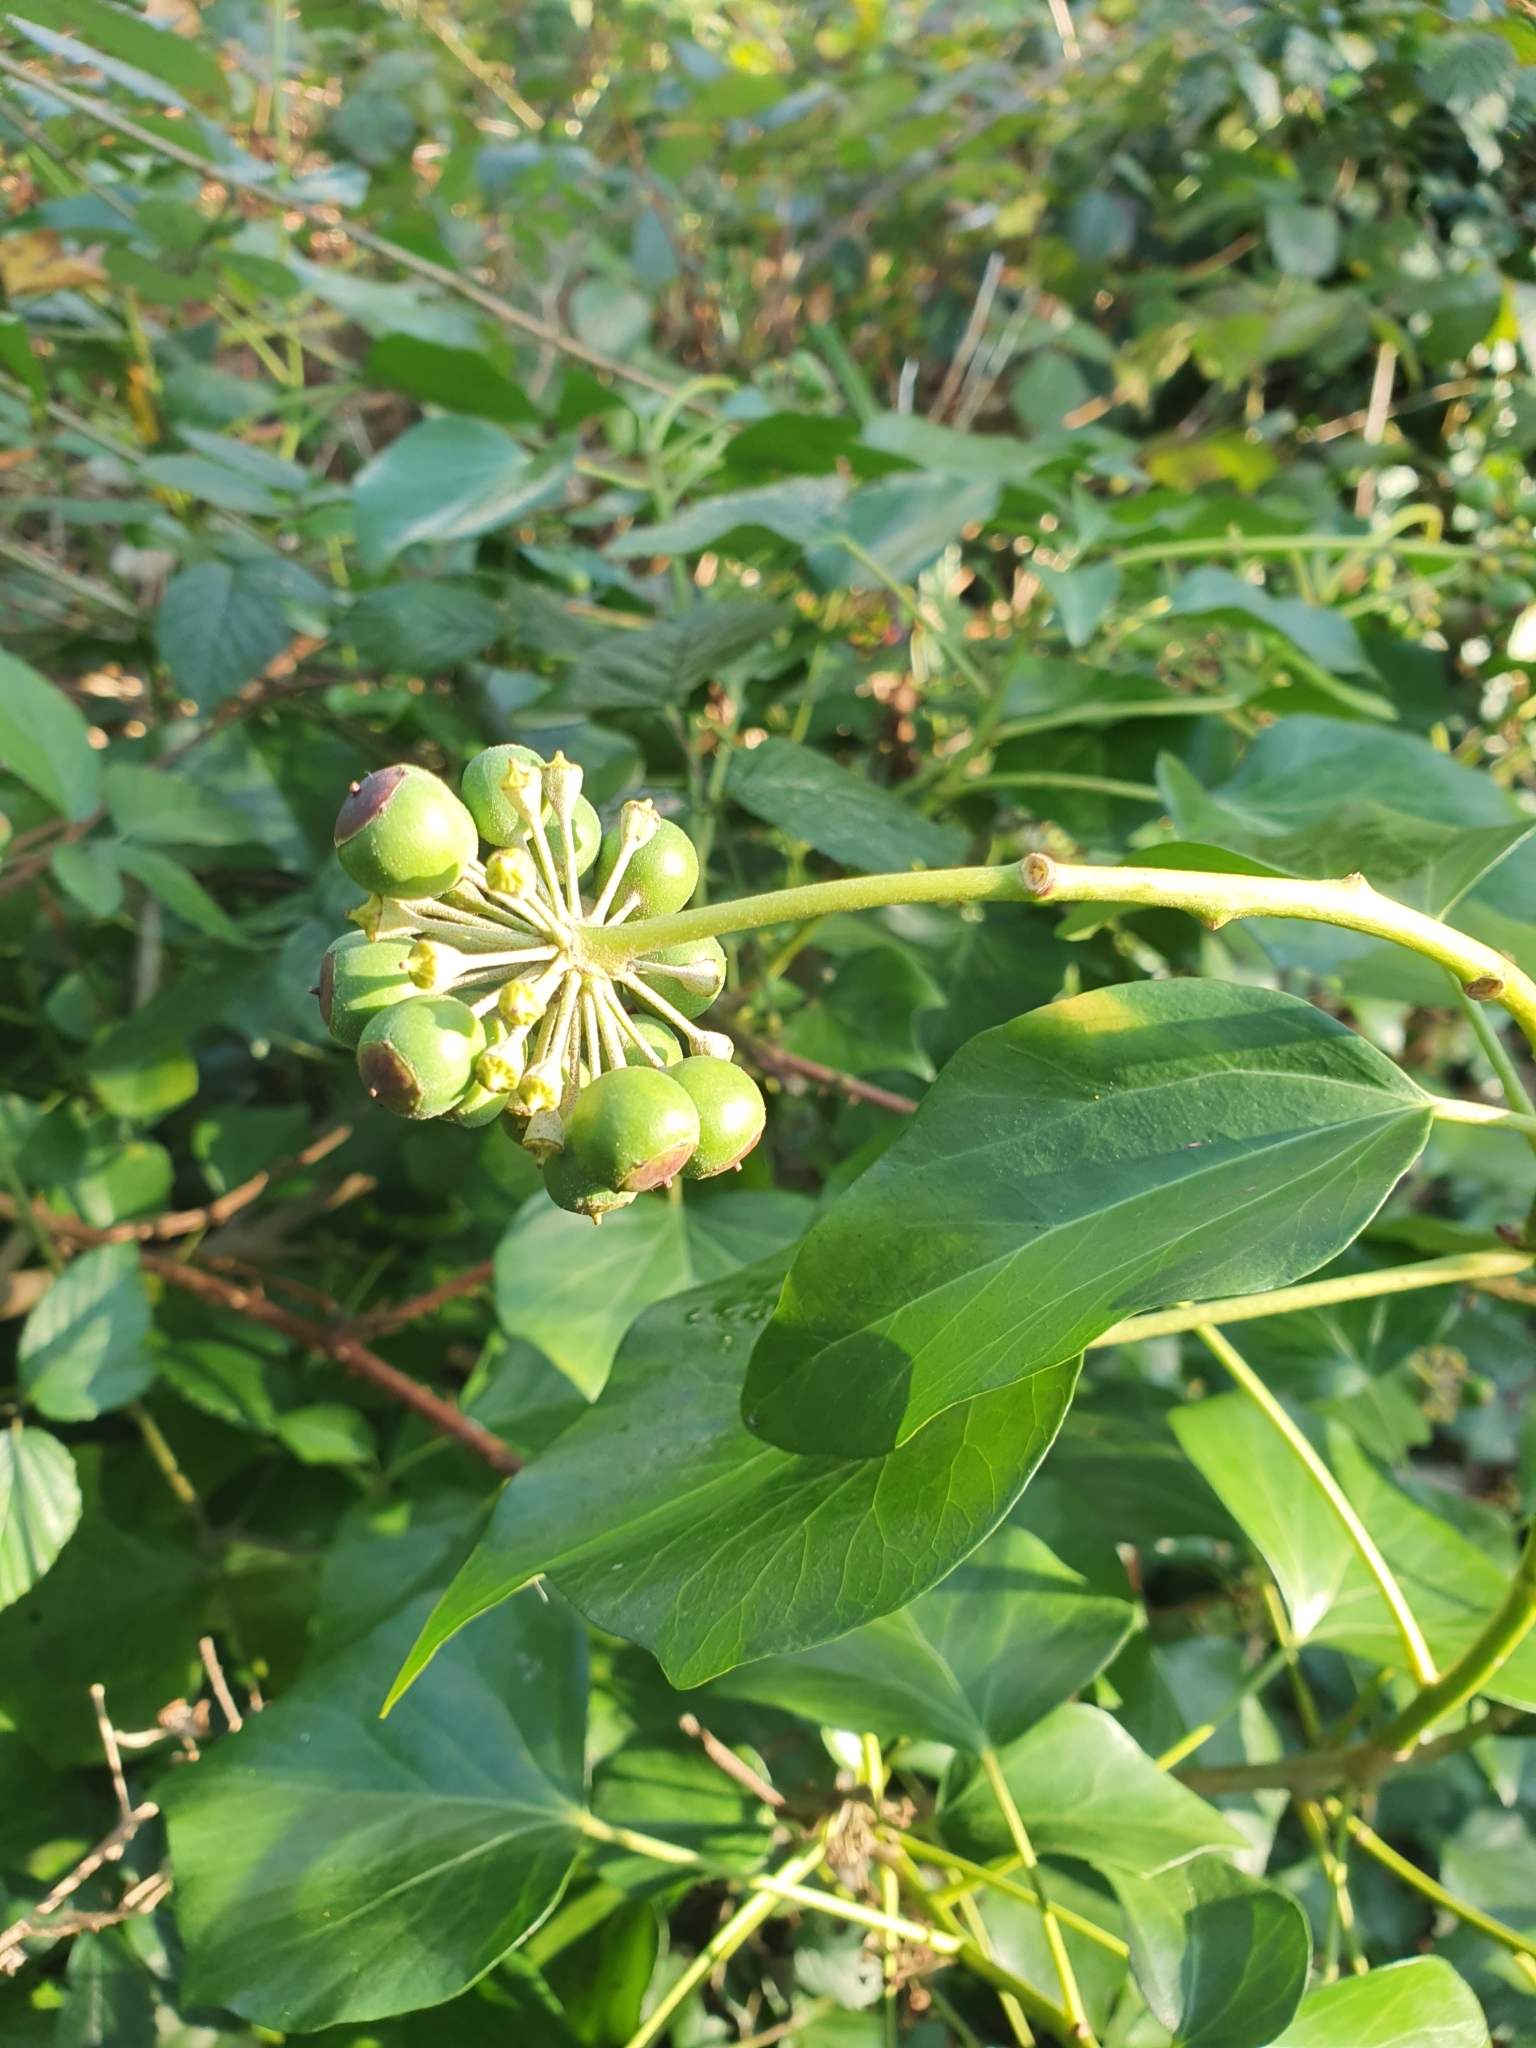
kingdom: Plantae
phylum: Tracheophyta
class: Magnoliopsida
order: Apiales
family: Araliaceae
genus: Hedera
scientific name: Hedera helix
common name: Ivy
